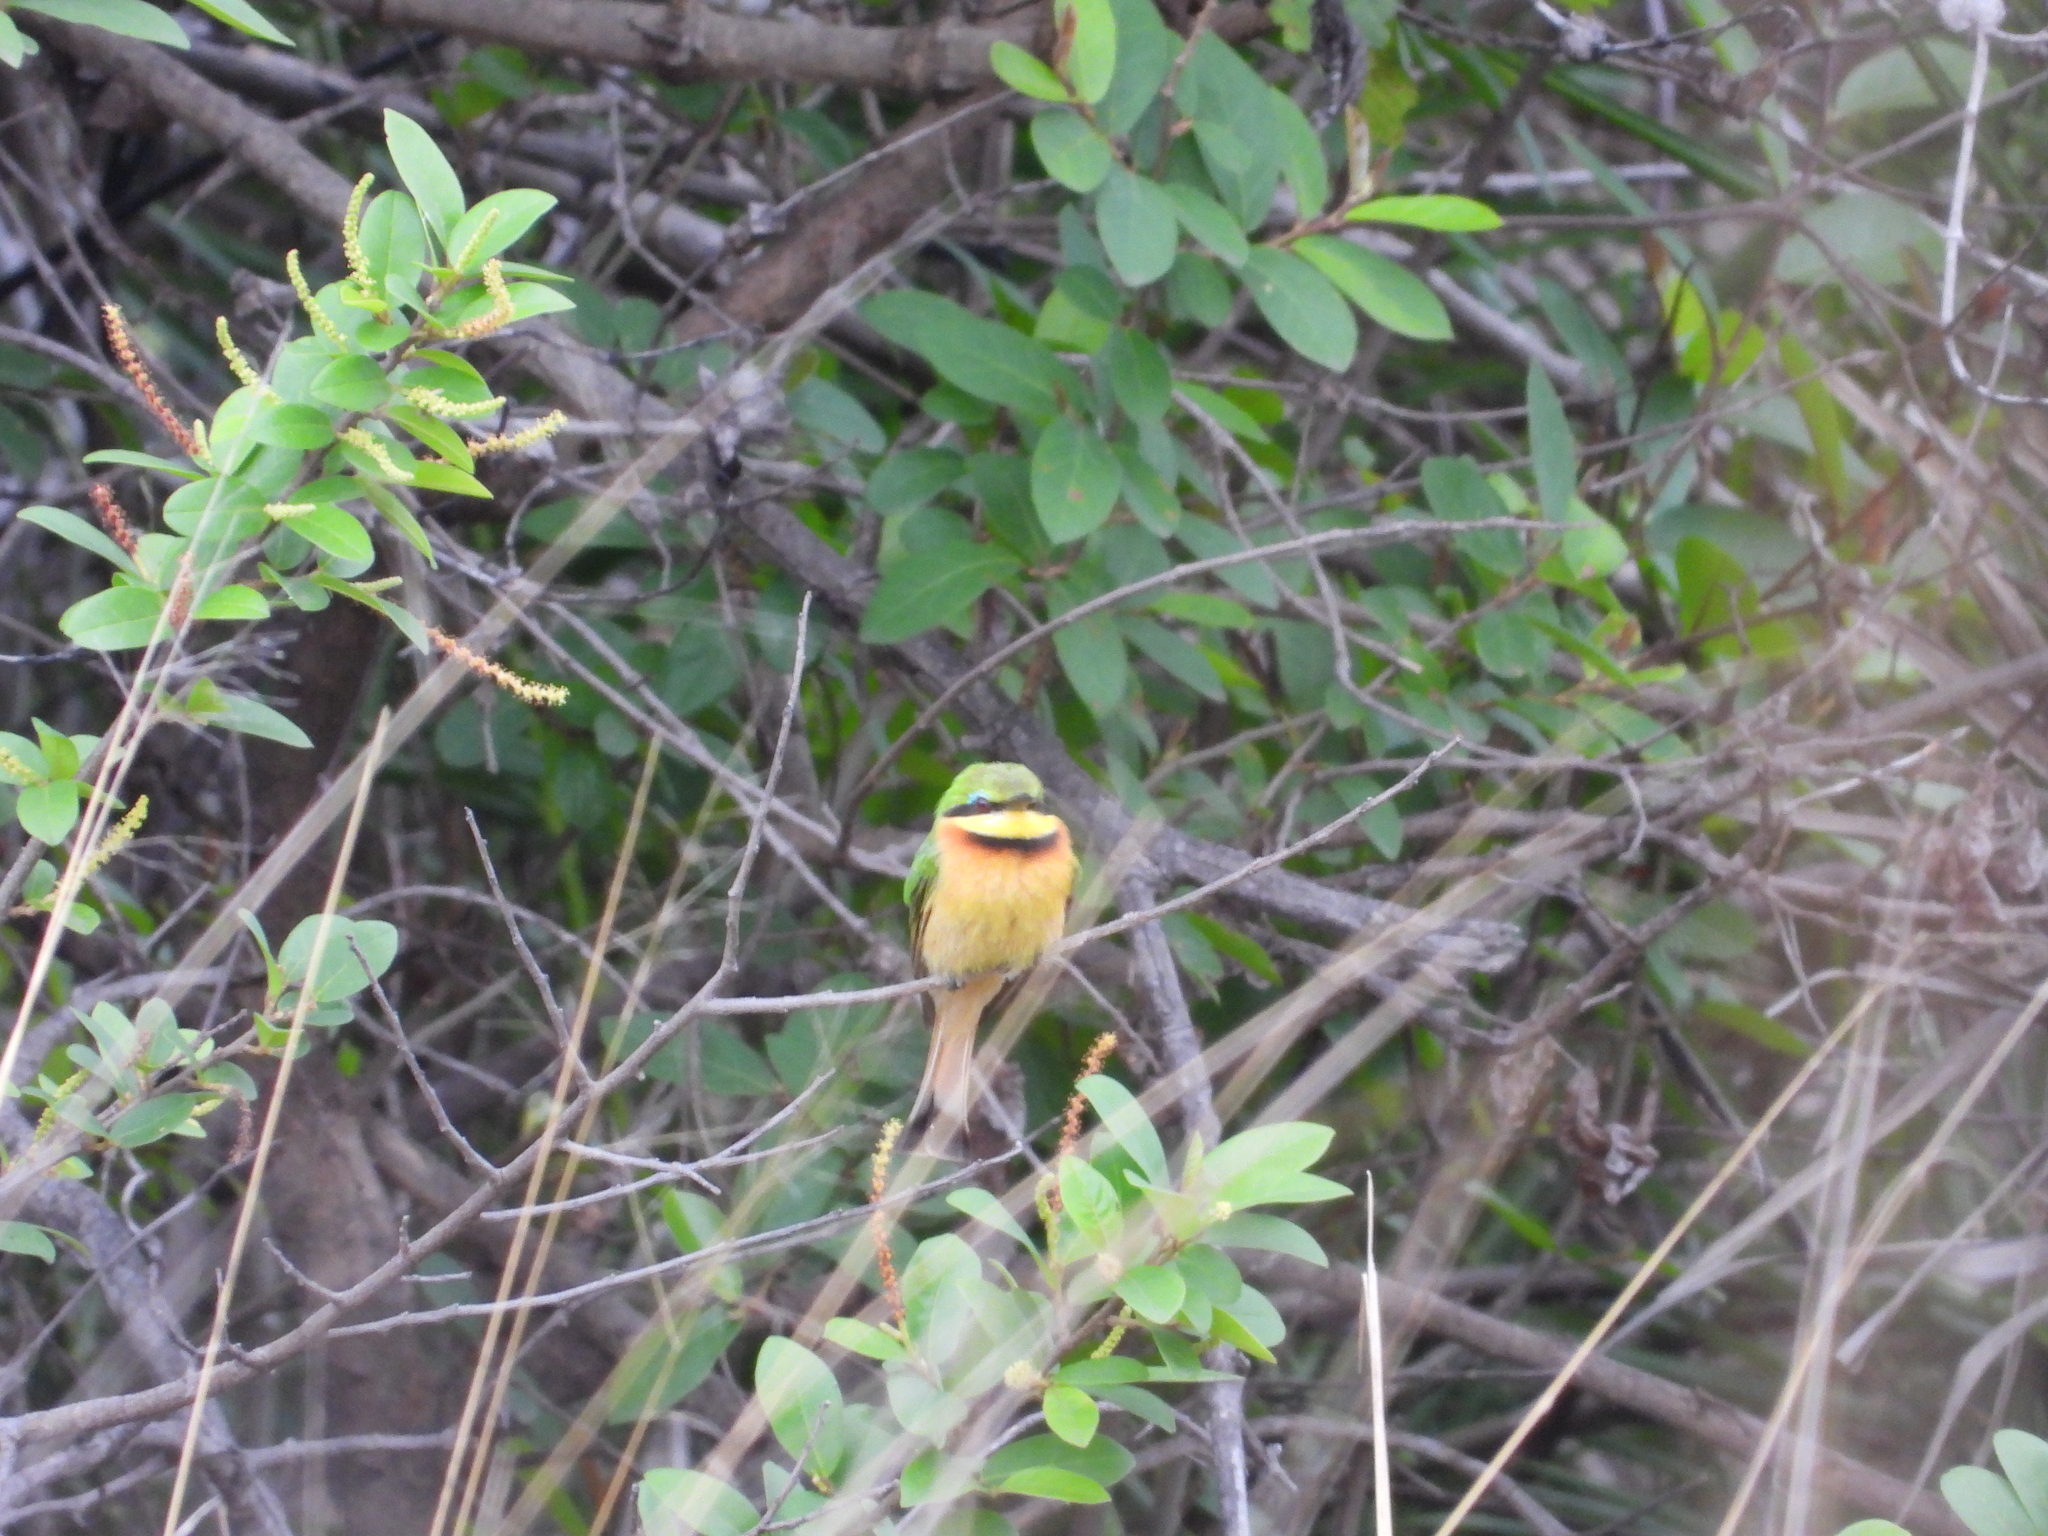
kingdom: Animalia
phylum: Chordata
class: Aves
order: Coraciiformes
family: Meropidae
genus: Merops
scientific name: Merops pusillus
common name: Little bee-eater
